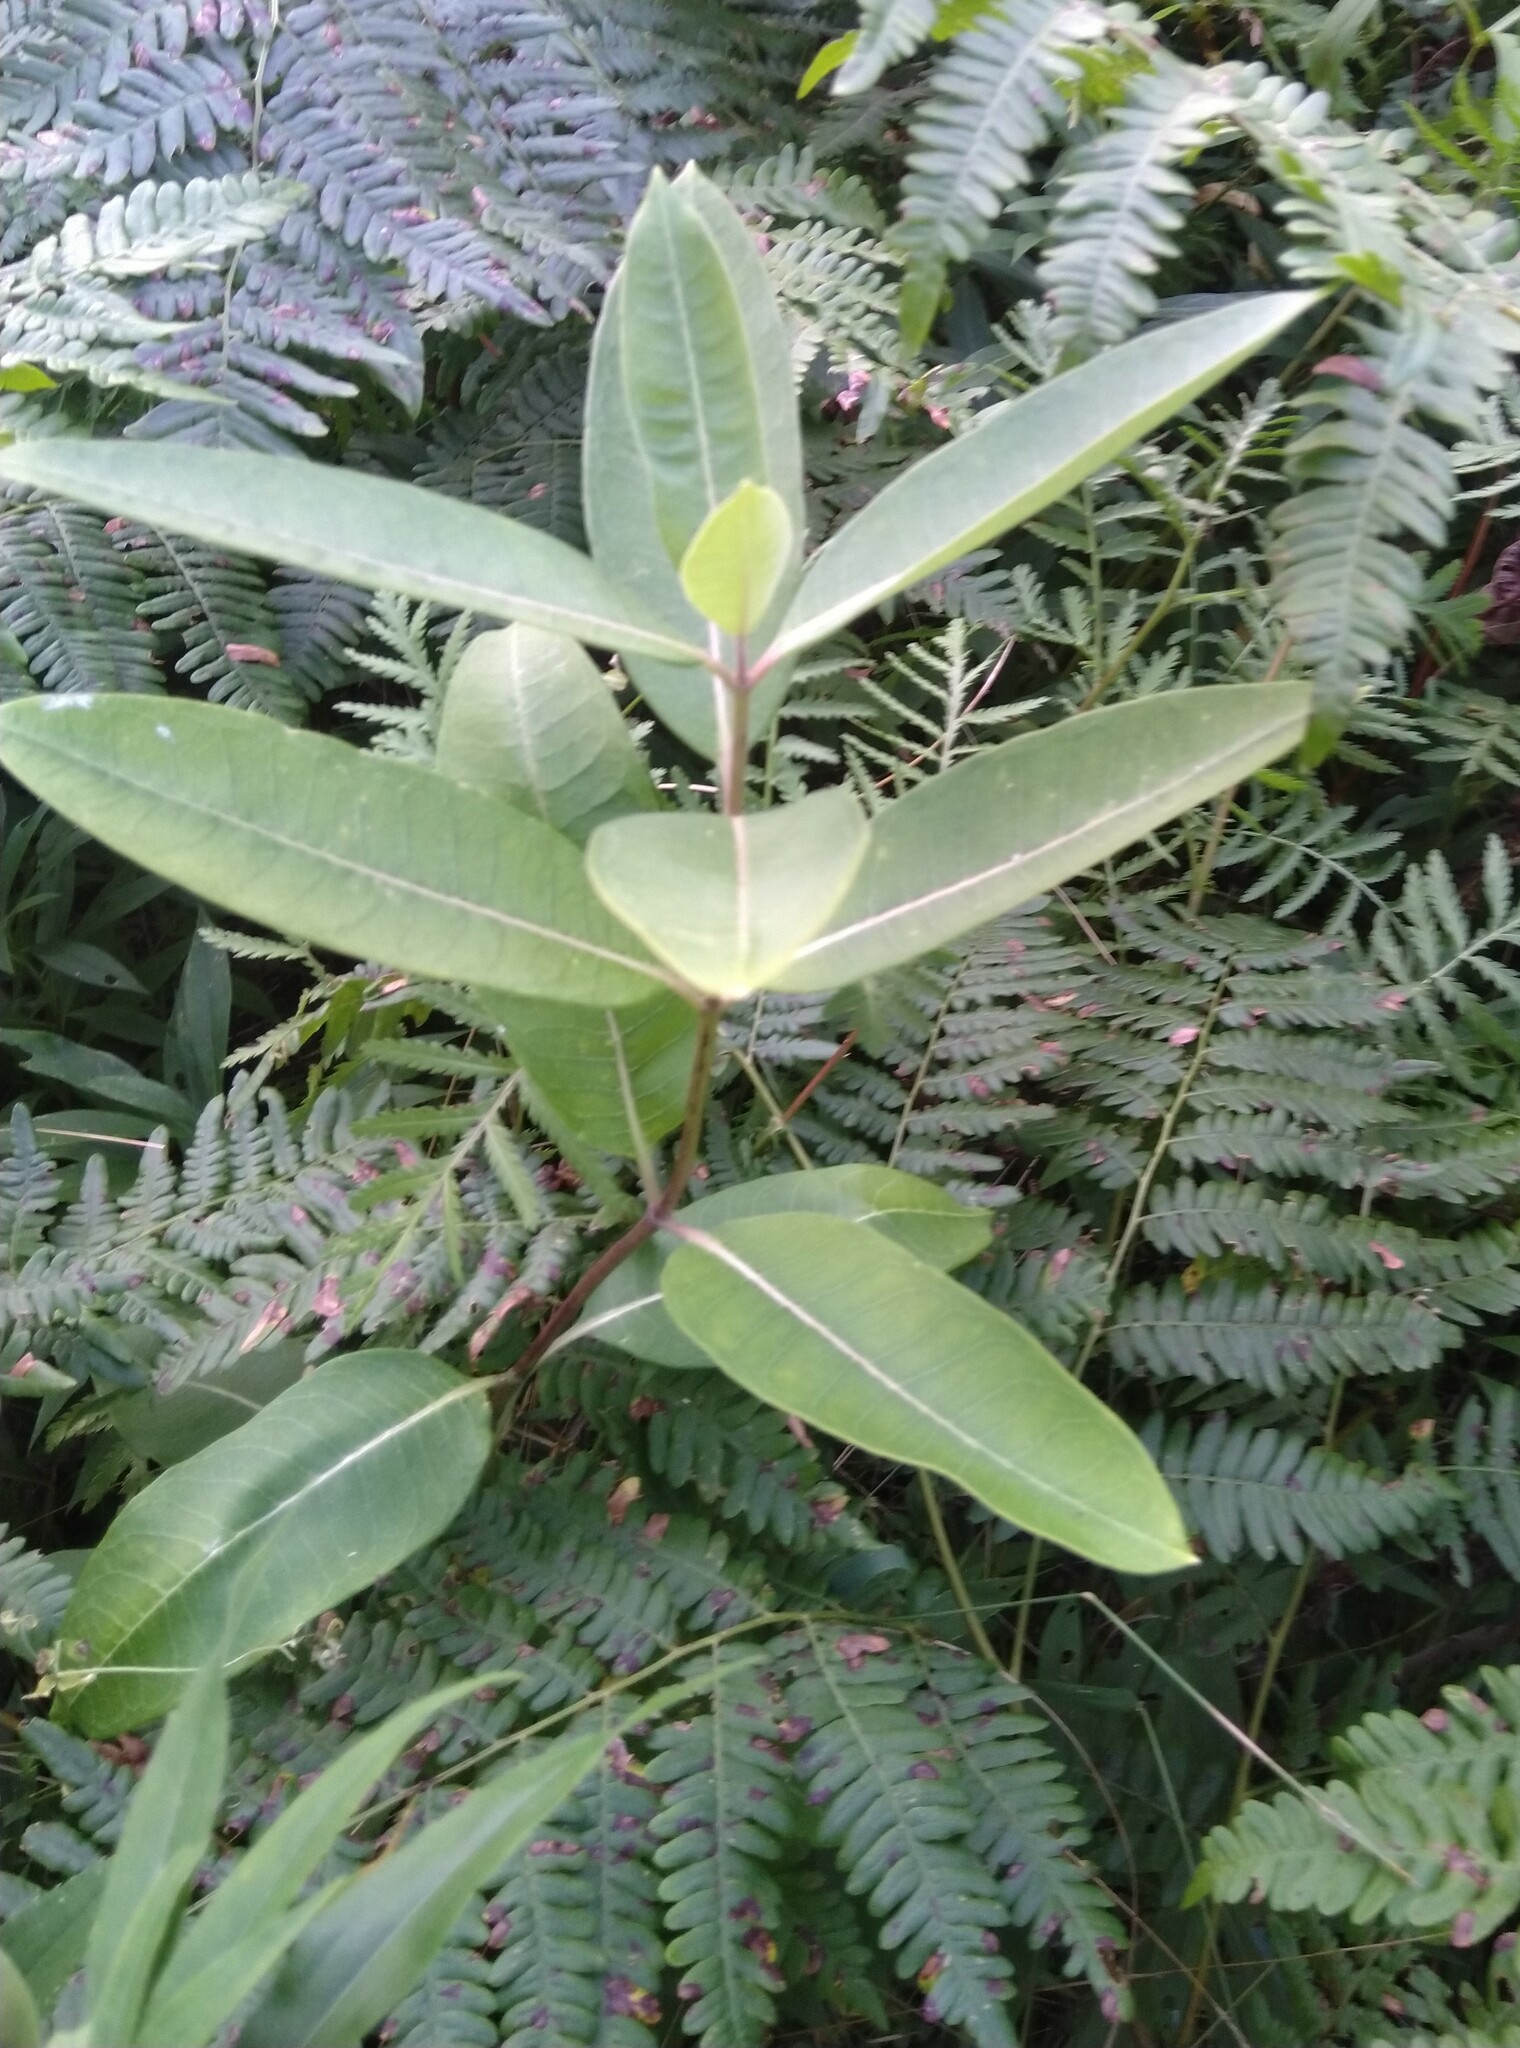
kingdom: Plantae
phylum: Tracheophyta
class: Magnoliopsida
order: Gentianales
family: Apocynaceae
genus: Asclepias
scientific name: Asclepias syriaca
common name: Common milkweed
